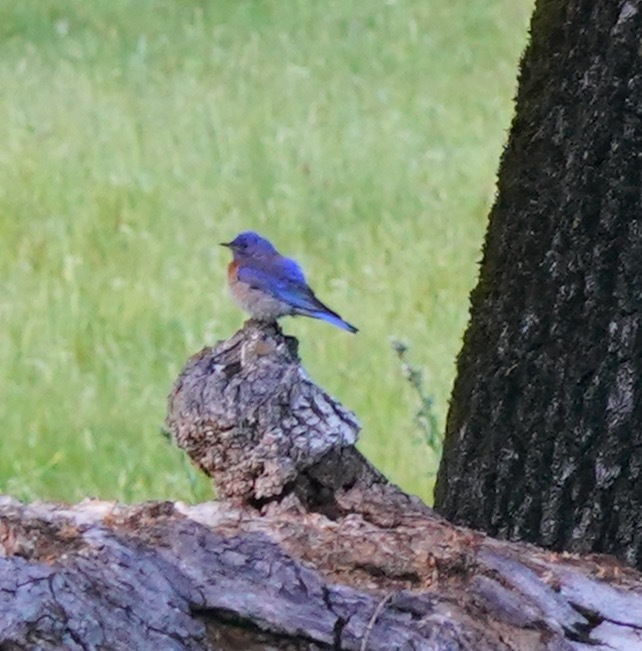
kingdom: Animalia
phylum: Chordata
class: Aves
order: Passeriformes
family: Turdidae
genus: Sialia
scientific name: Sialia mexicana
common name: Western bluebird
